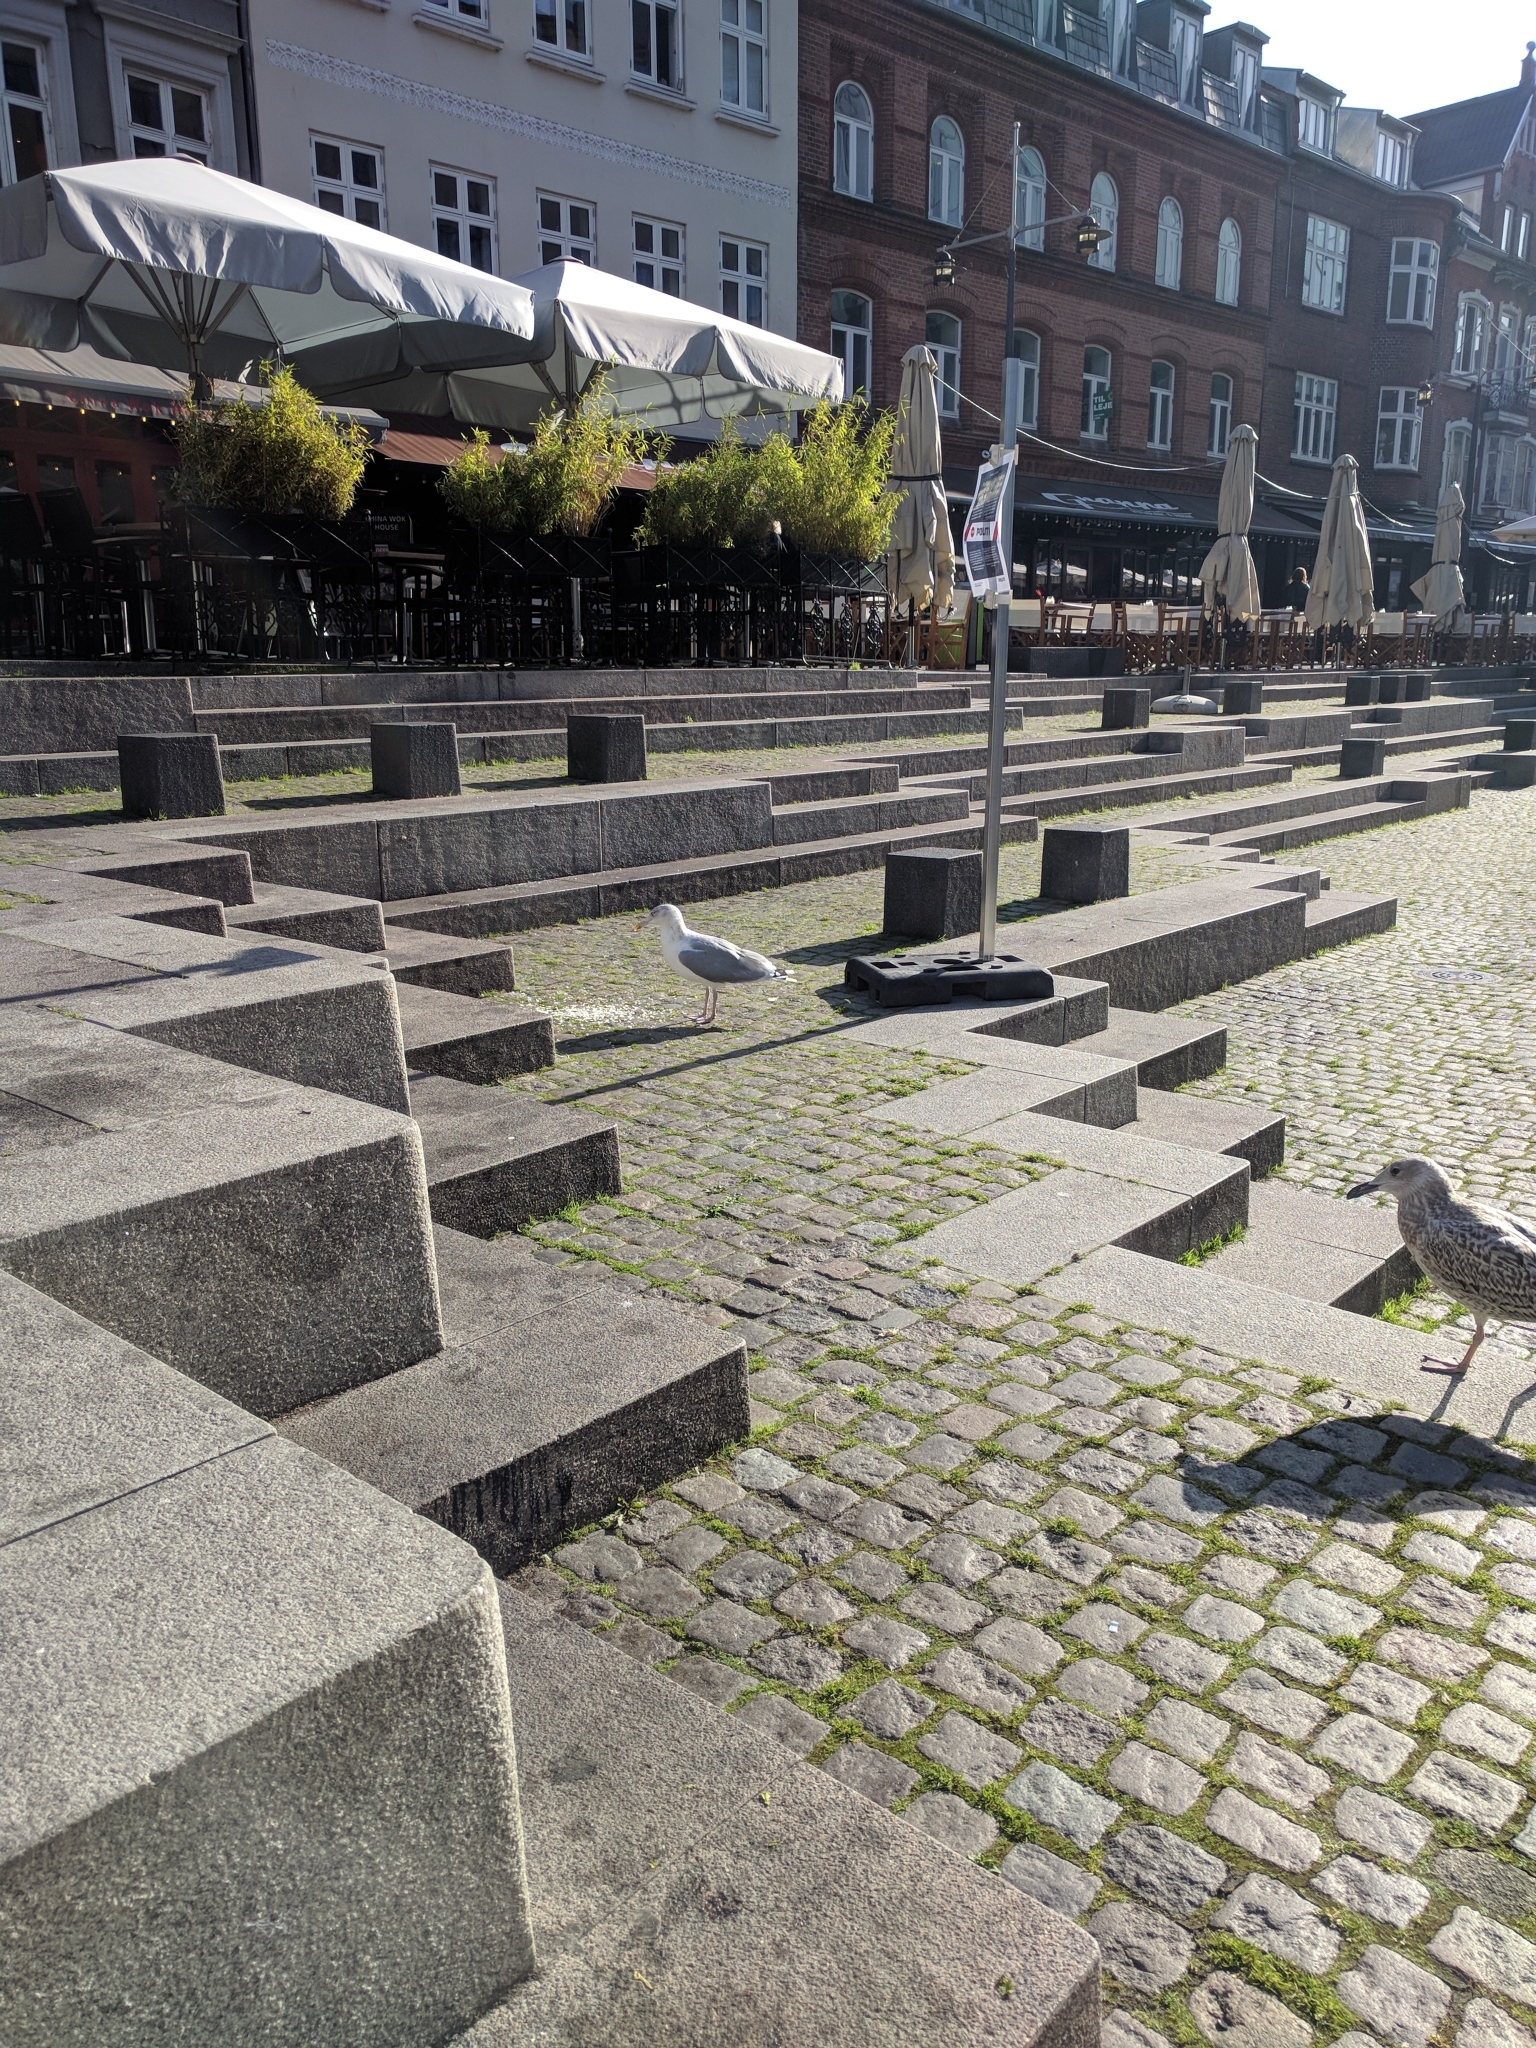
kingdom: Animalia
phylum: Chordata
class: Aves
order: Charadriiformes
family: Laridae
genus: Larus
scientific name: Larus argentatus
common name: Herring gull
